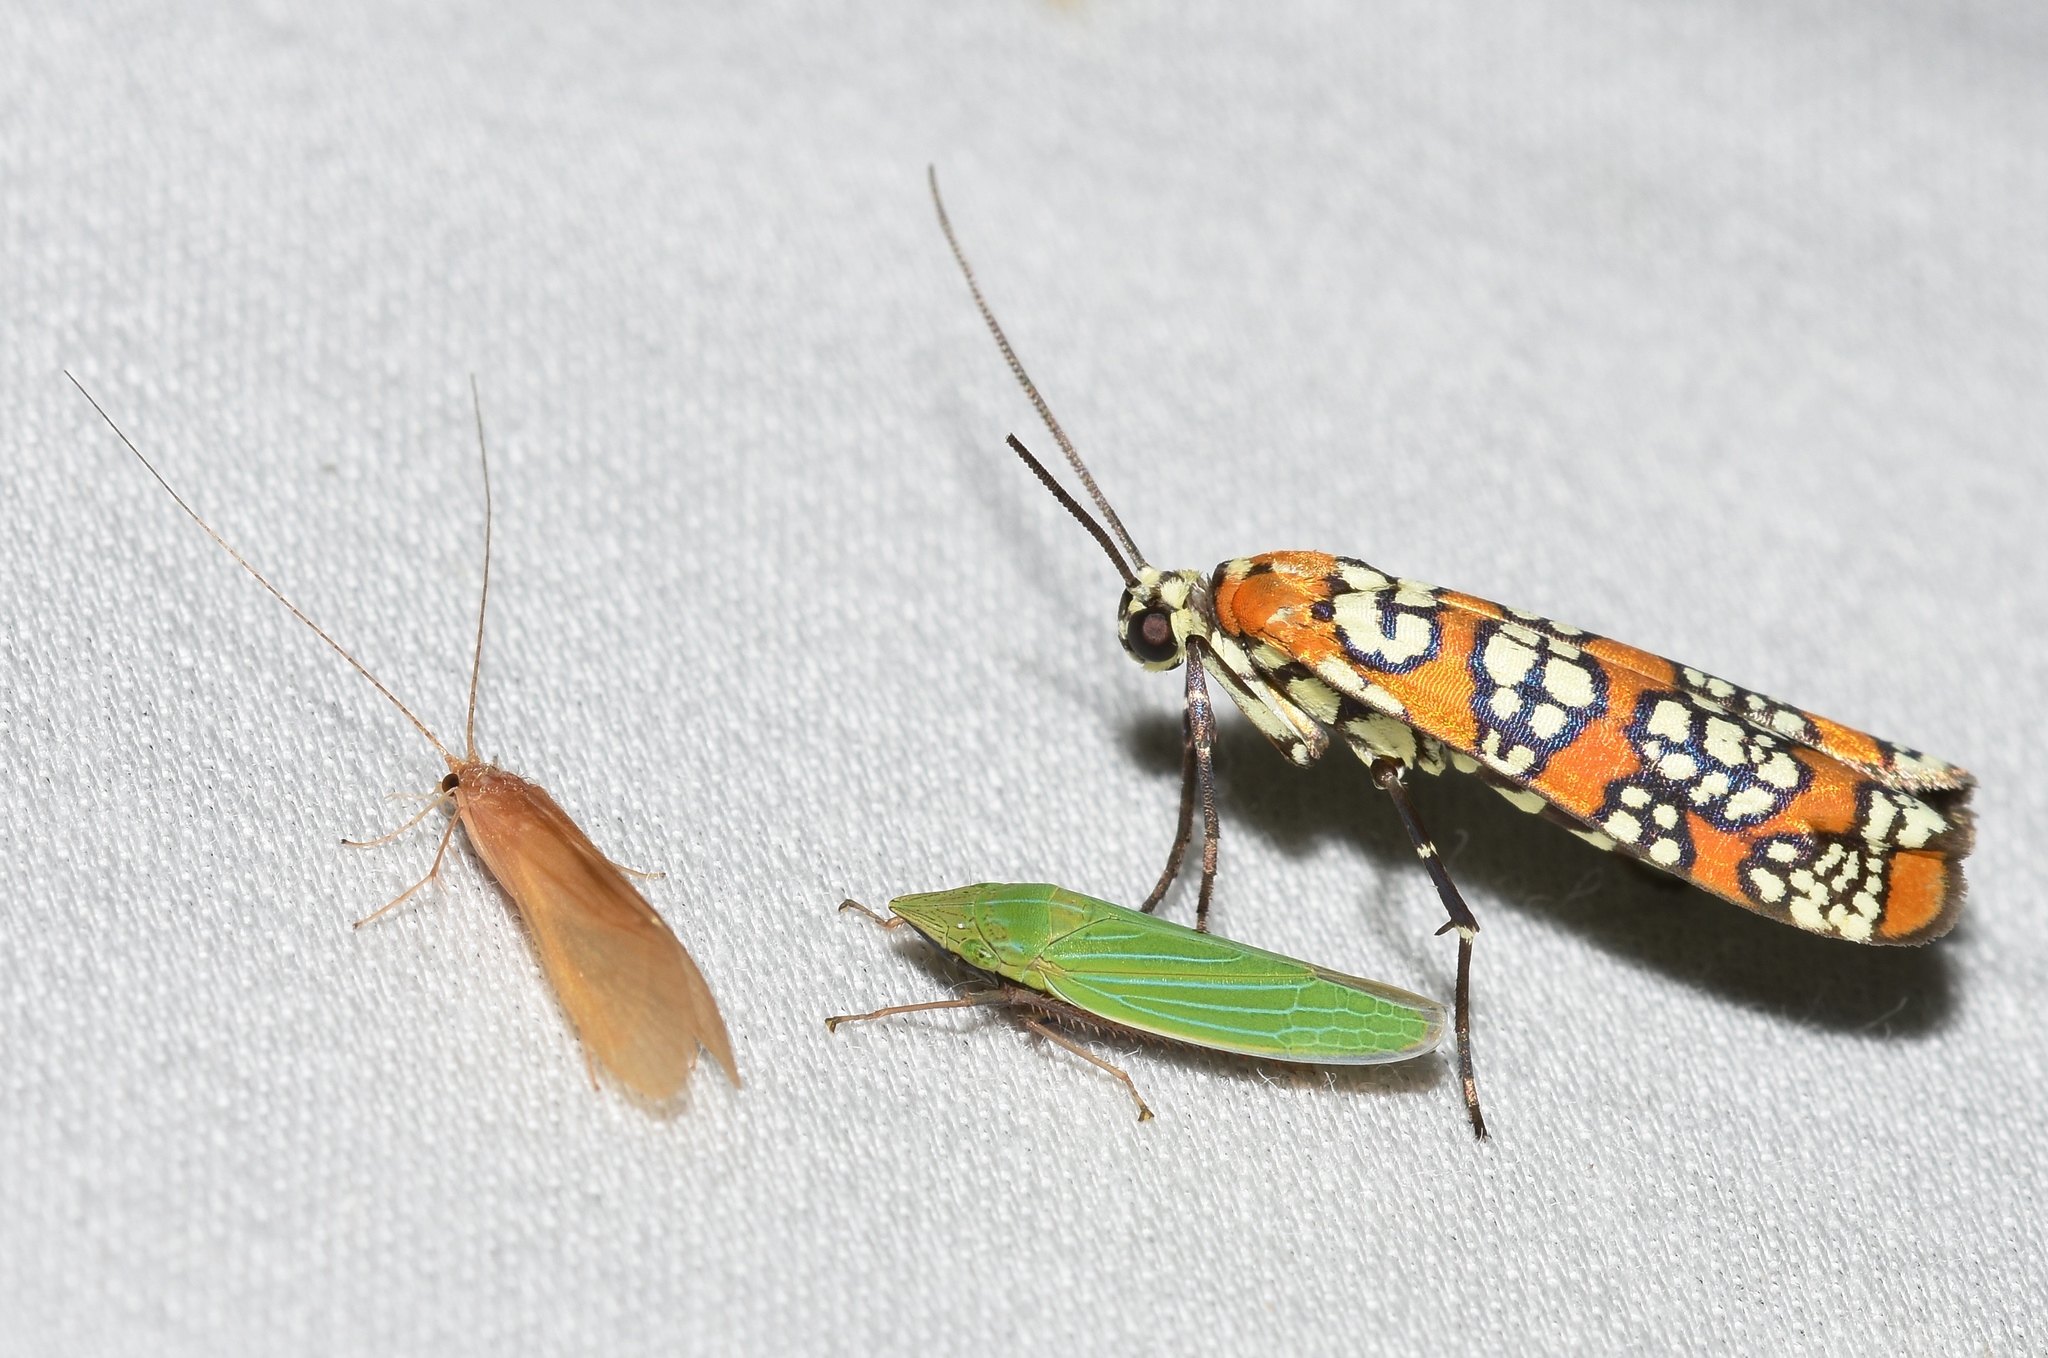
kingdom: Animalia
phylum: Arthropoda
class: Insecta
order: Lepidoptera
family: Attevidae
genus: Atteva
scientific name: Atteva punctella
